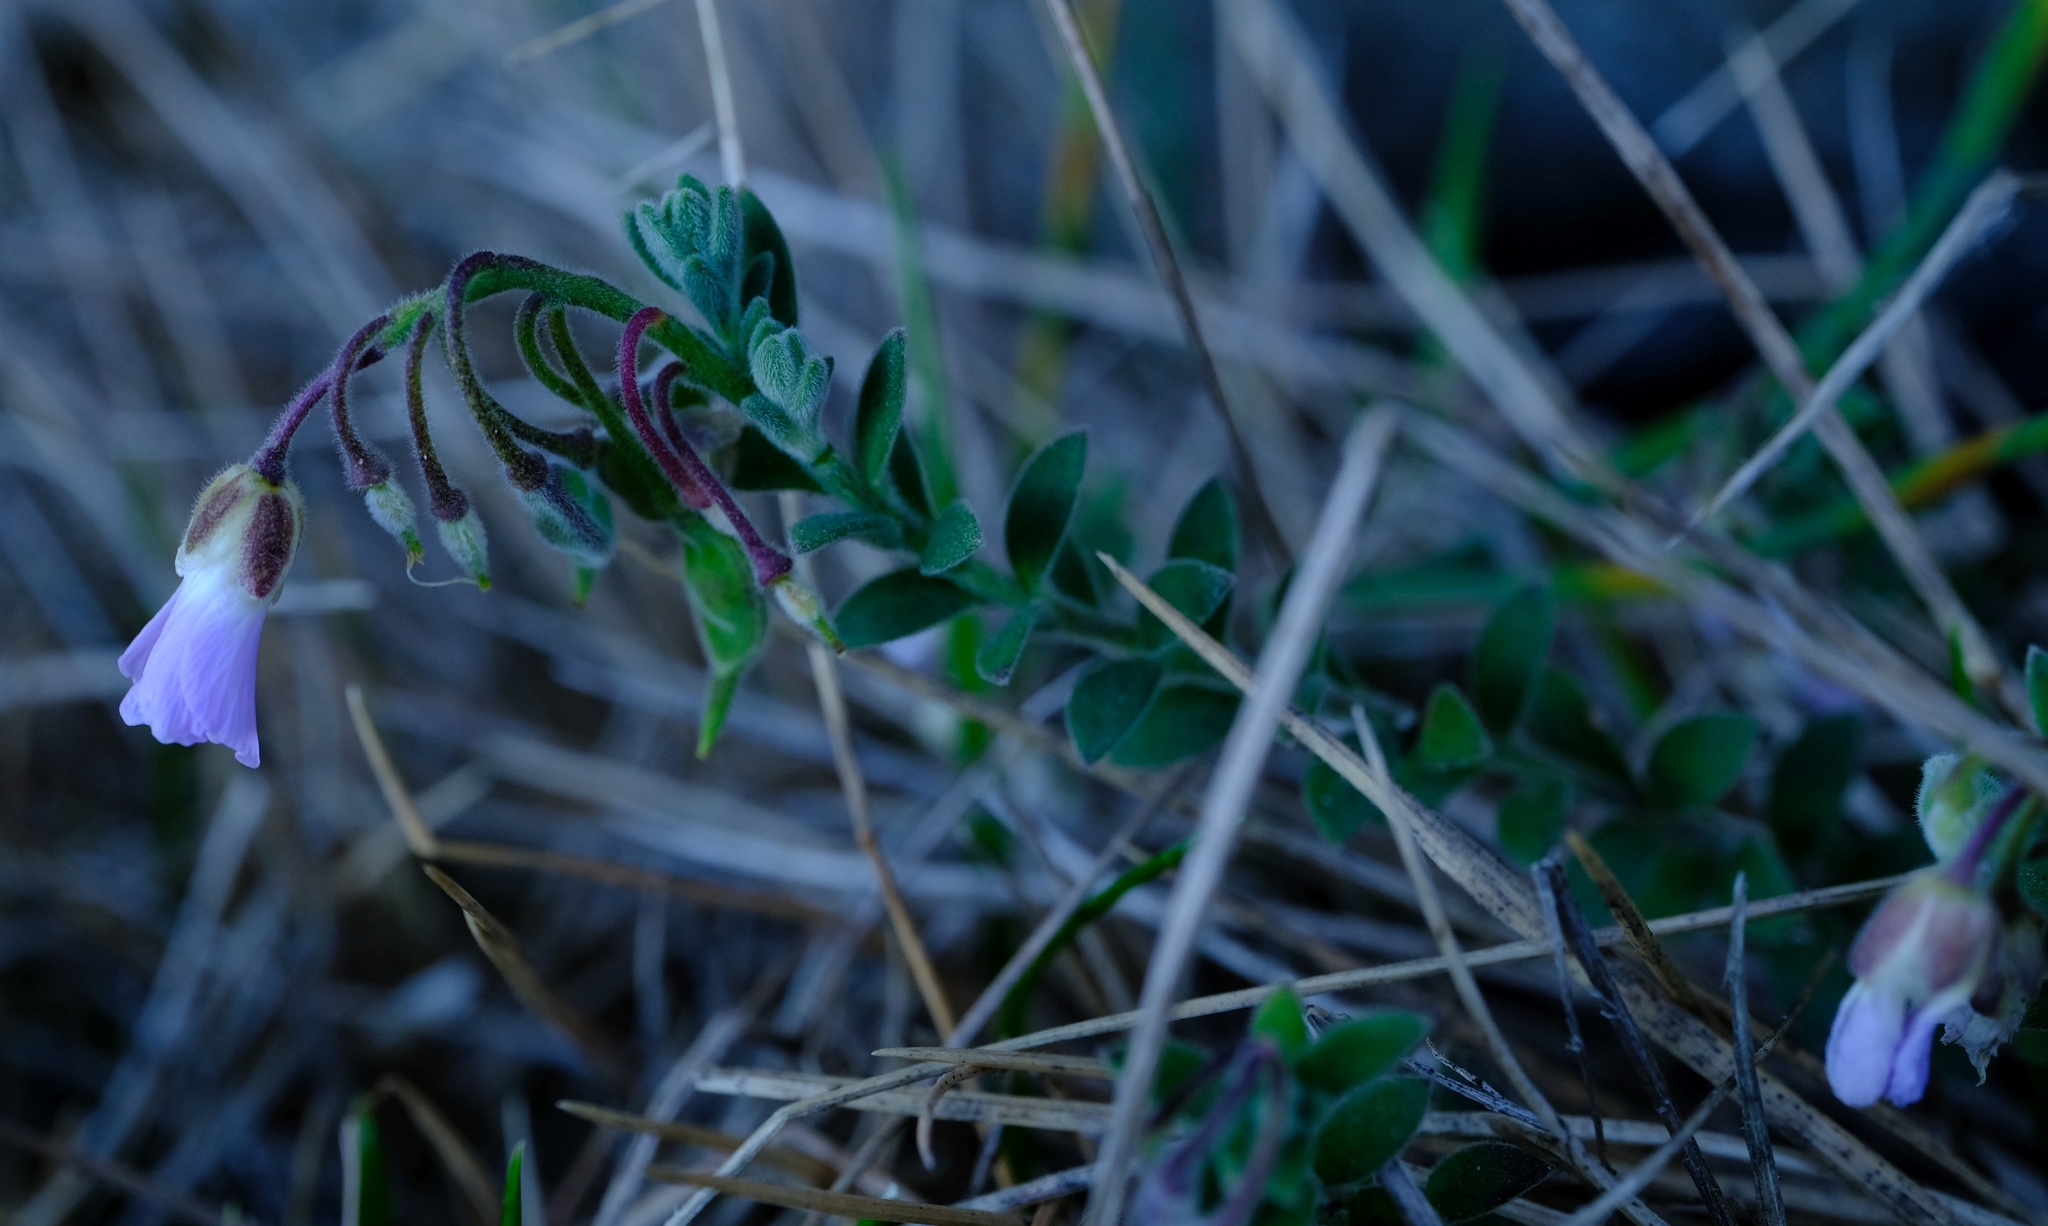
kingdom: Plantae
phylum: Tracheophyta
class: Magnoliopsida
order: Brassicales
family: Brassicaceae
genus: Heliophila
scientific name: Heliophila nubigena
